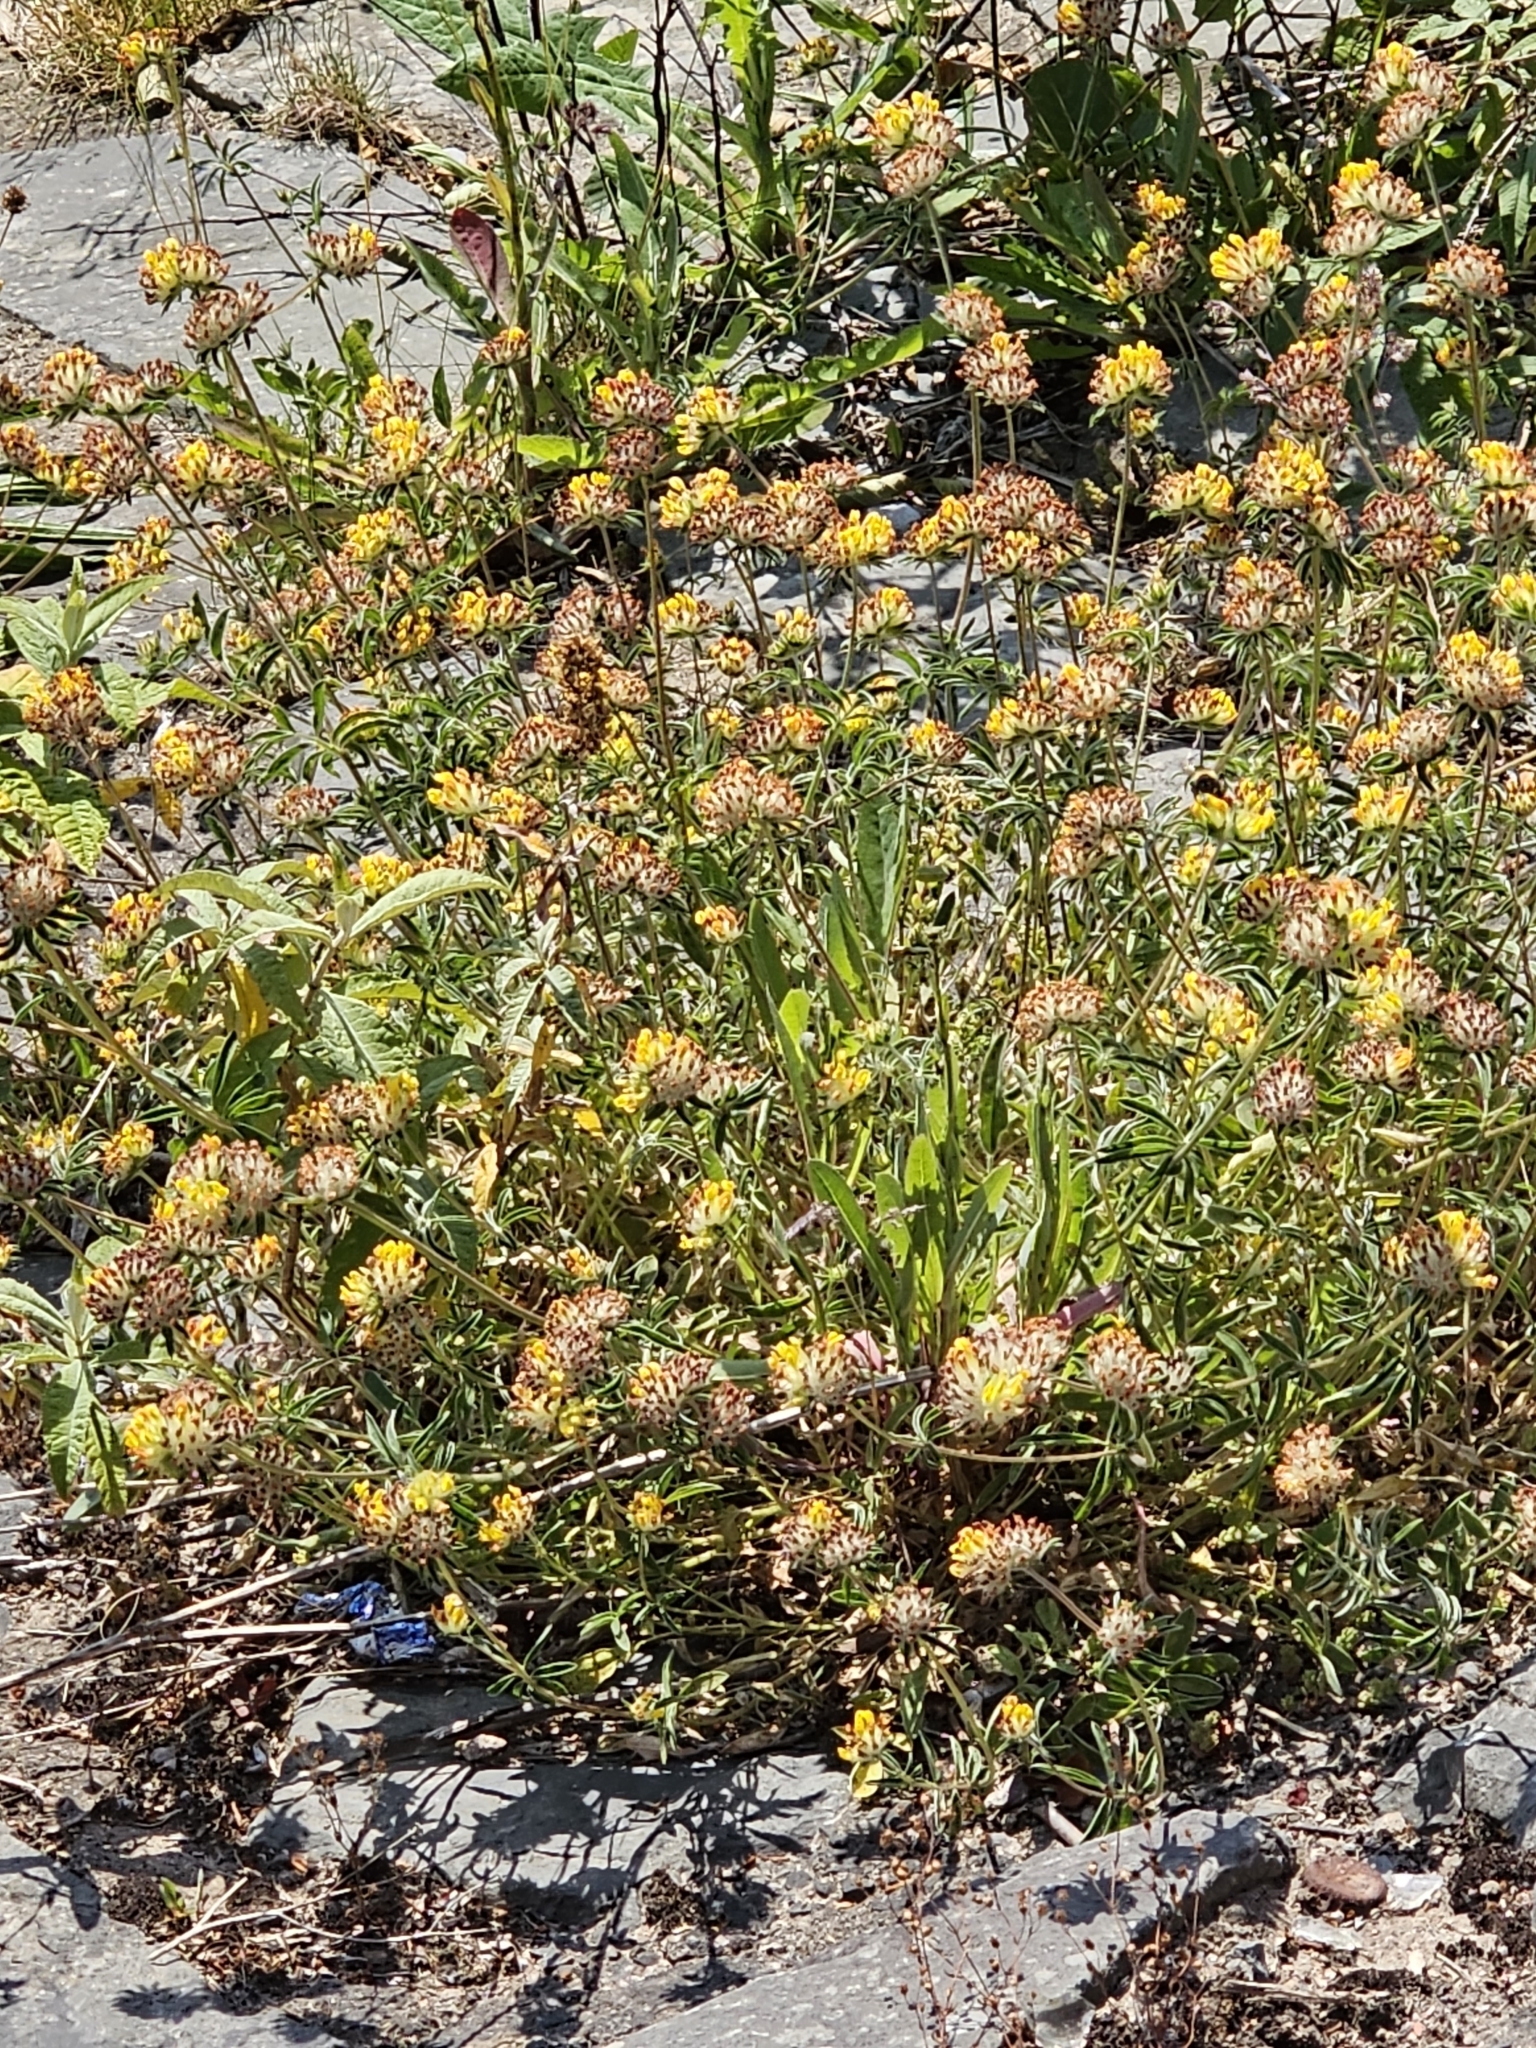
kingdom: Plantae
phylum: Tracheophyta
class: Magnoliopsida
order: Fabales
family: Fabaceae
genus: Anthyllis
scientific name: Anthyllis vulneraria
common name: Kidney vetch
